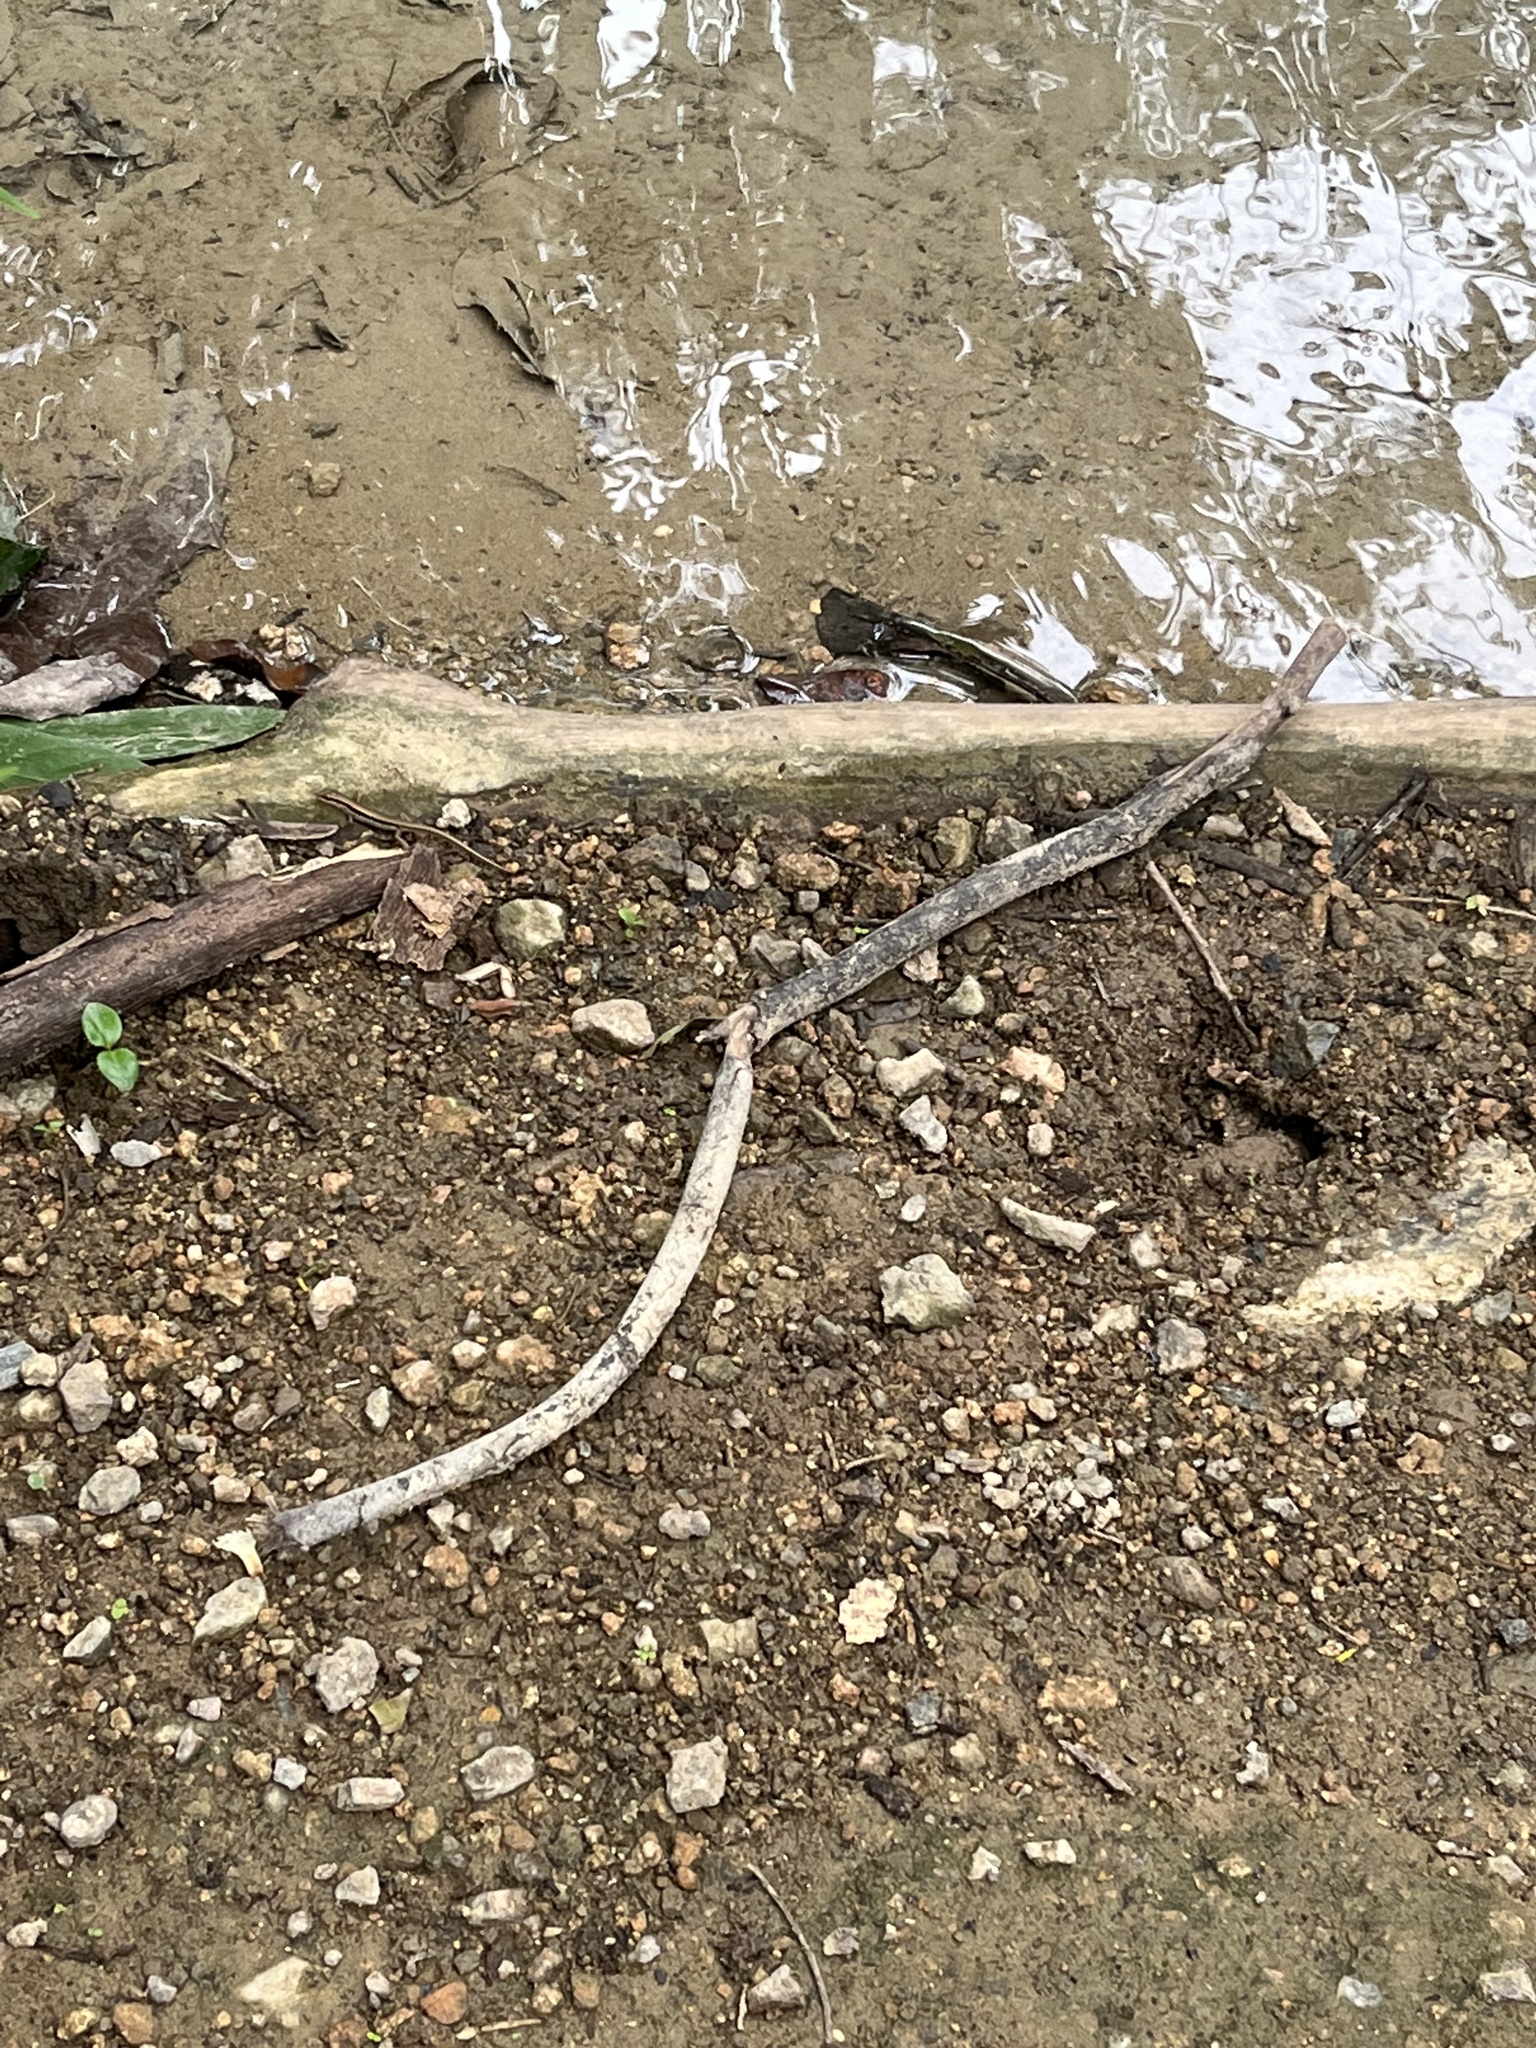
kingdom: Animalia
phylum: Chordata
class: Squamata
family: Scincidae
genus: Sphenomorphus
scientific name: Sphenomorphus maculatus
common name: Maculated forest skink
